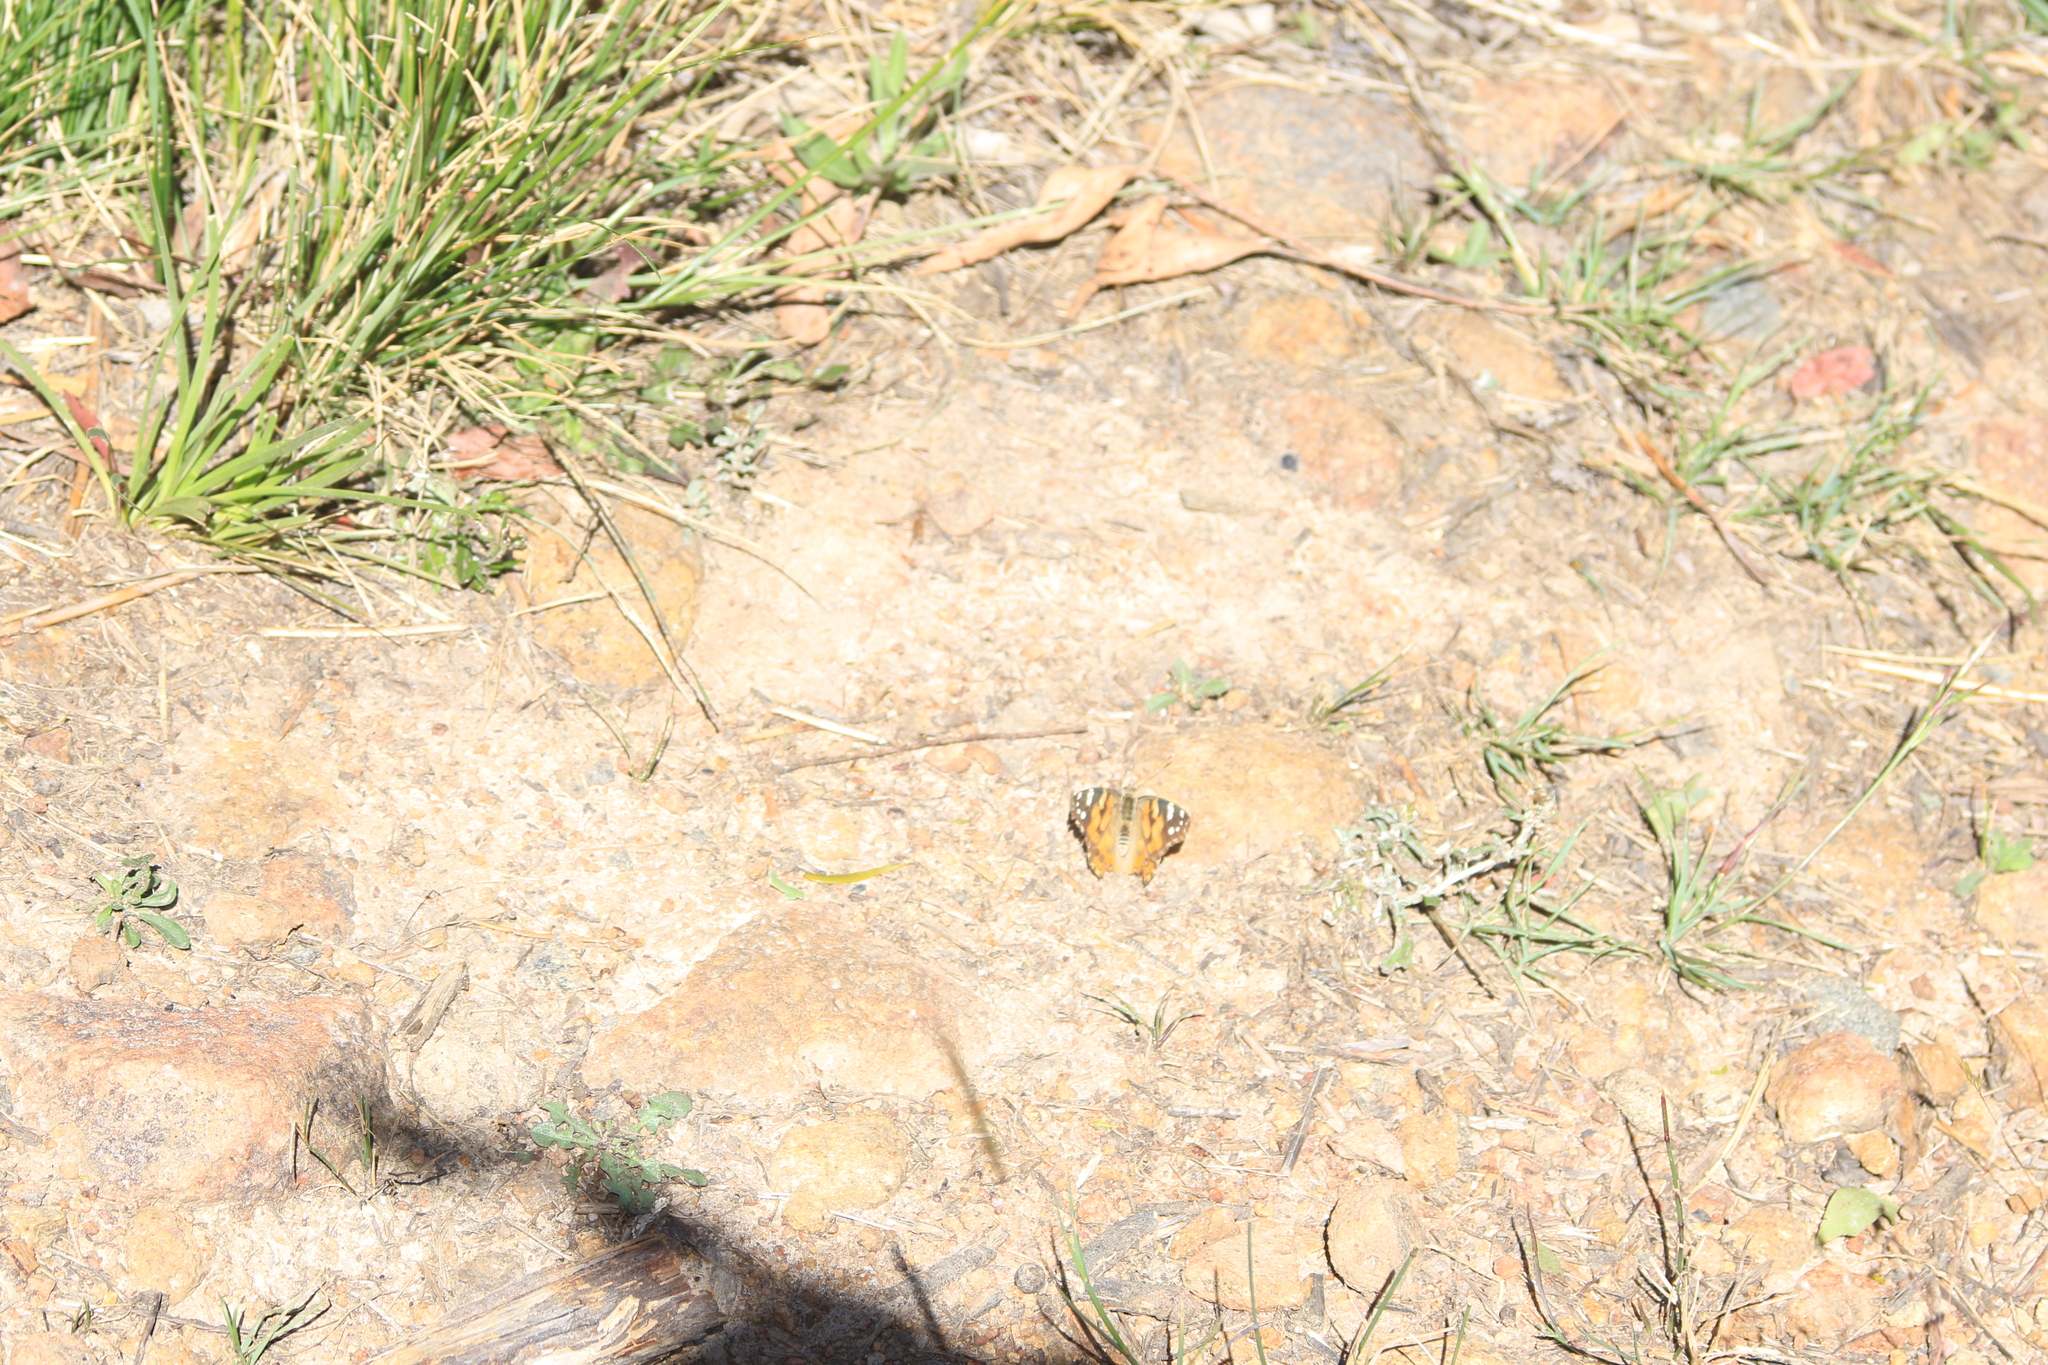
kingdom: Animalia
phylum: Arthropoda
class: Insecta
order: Lepidoptera
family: Nymphalidae
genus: Vanessa
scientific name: Vanessa kershawi
